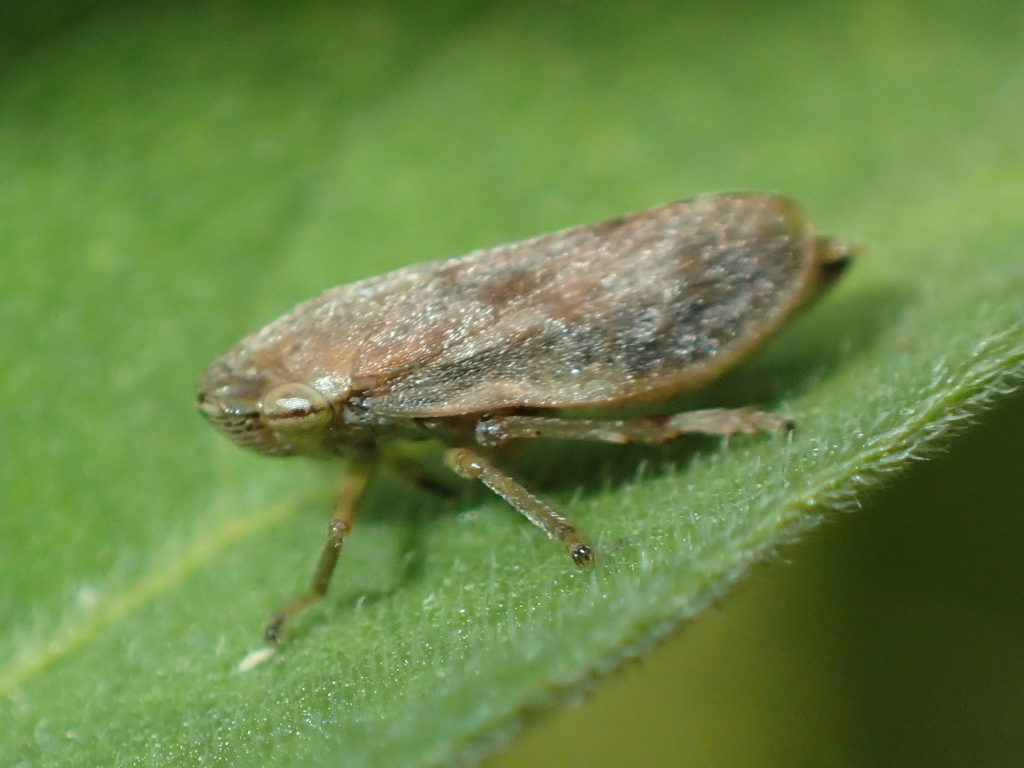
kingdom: Animalia
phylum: Arthropoda
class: Insecta
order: Hemiptera
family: Aphrophoridae
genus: Philaenus
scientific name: Philaenus spumarius
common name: Meadow spittlebug
